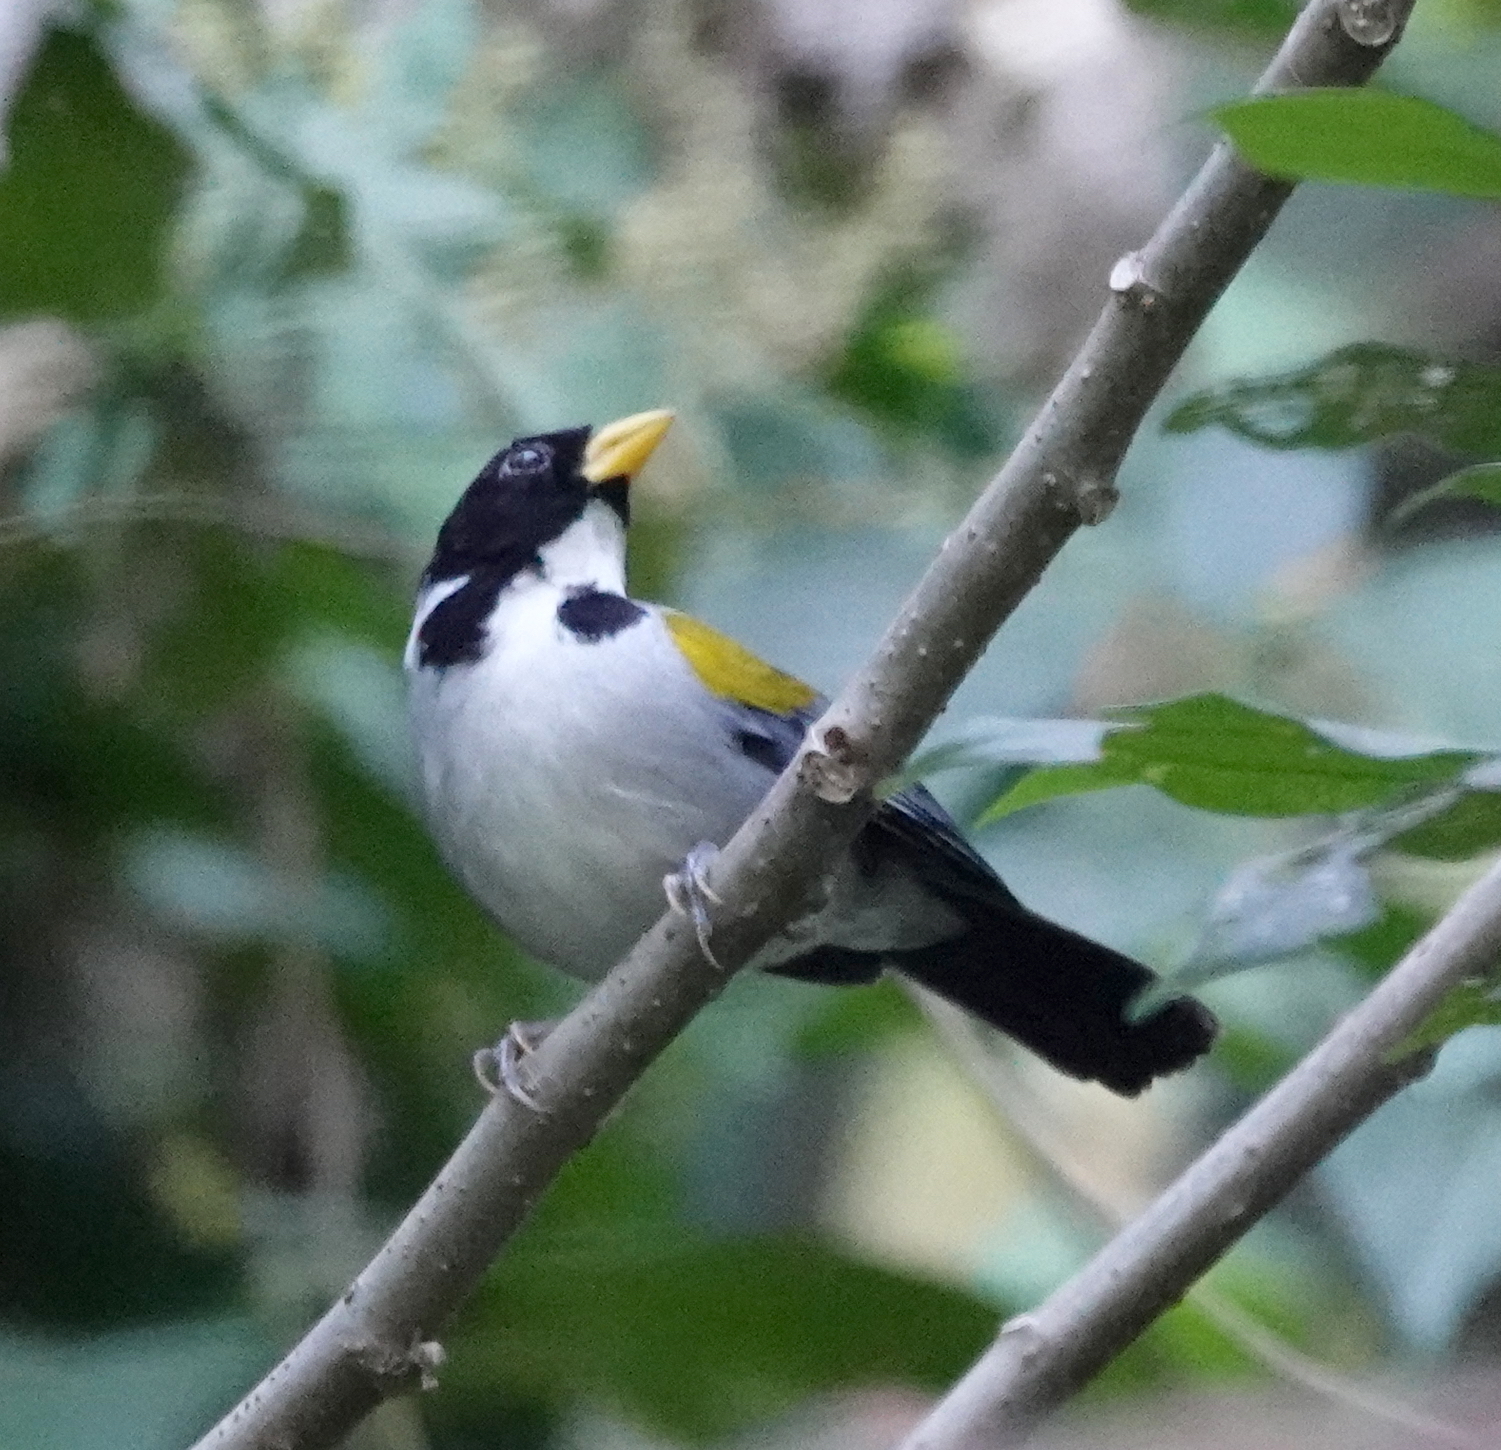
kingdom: Animalia
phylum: Chordata
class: Aves
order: Passeriformes
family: Passerellidae
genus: Arremon
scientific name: Arremon schlegeli
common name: Golden-winged sparrow
